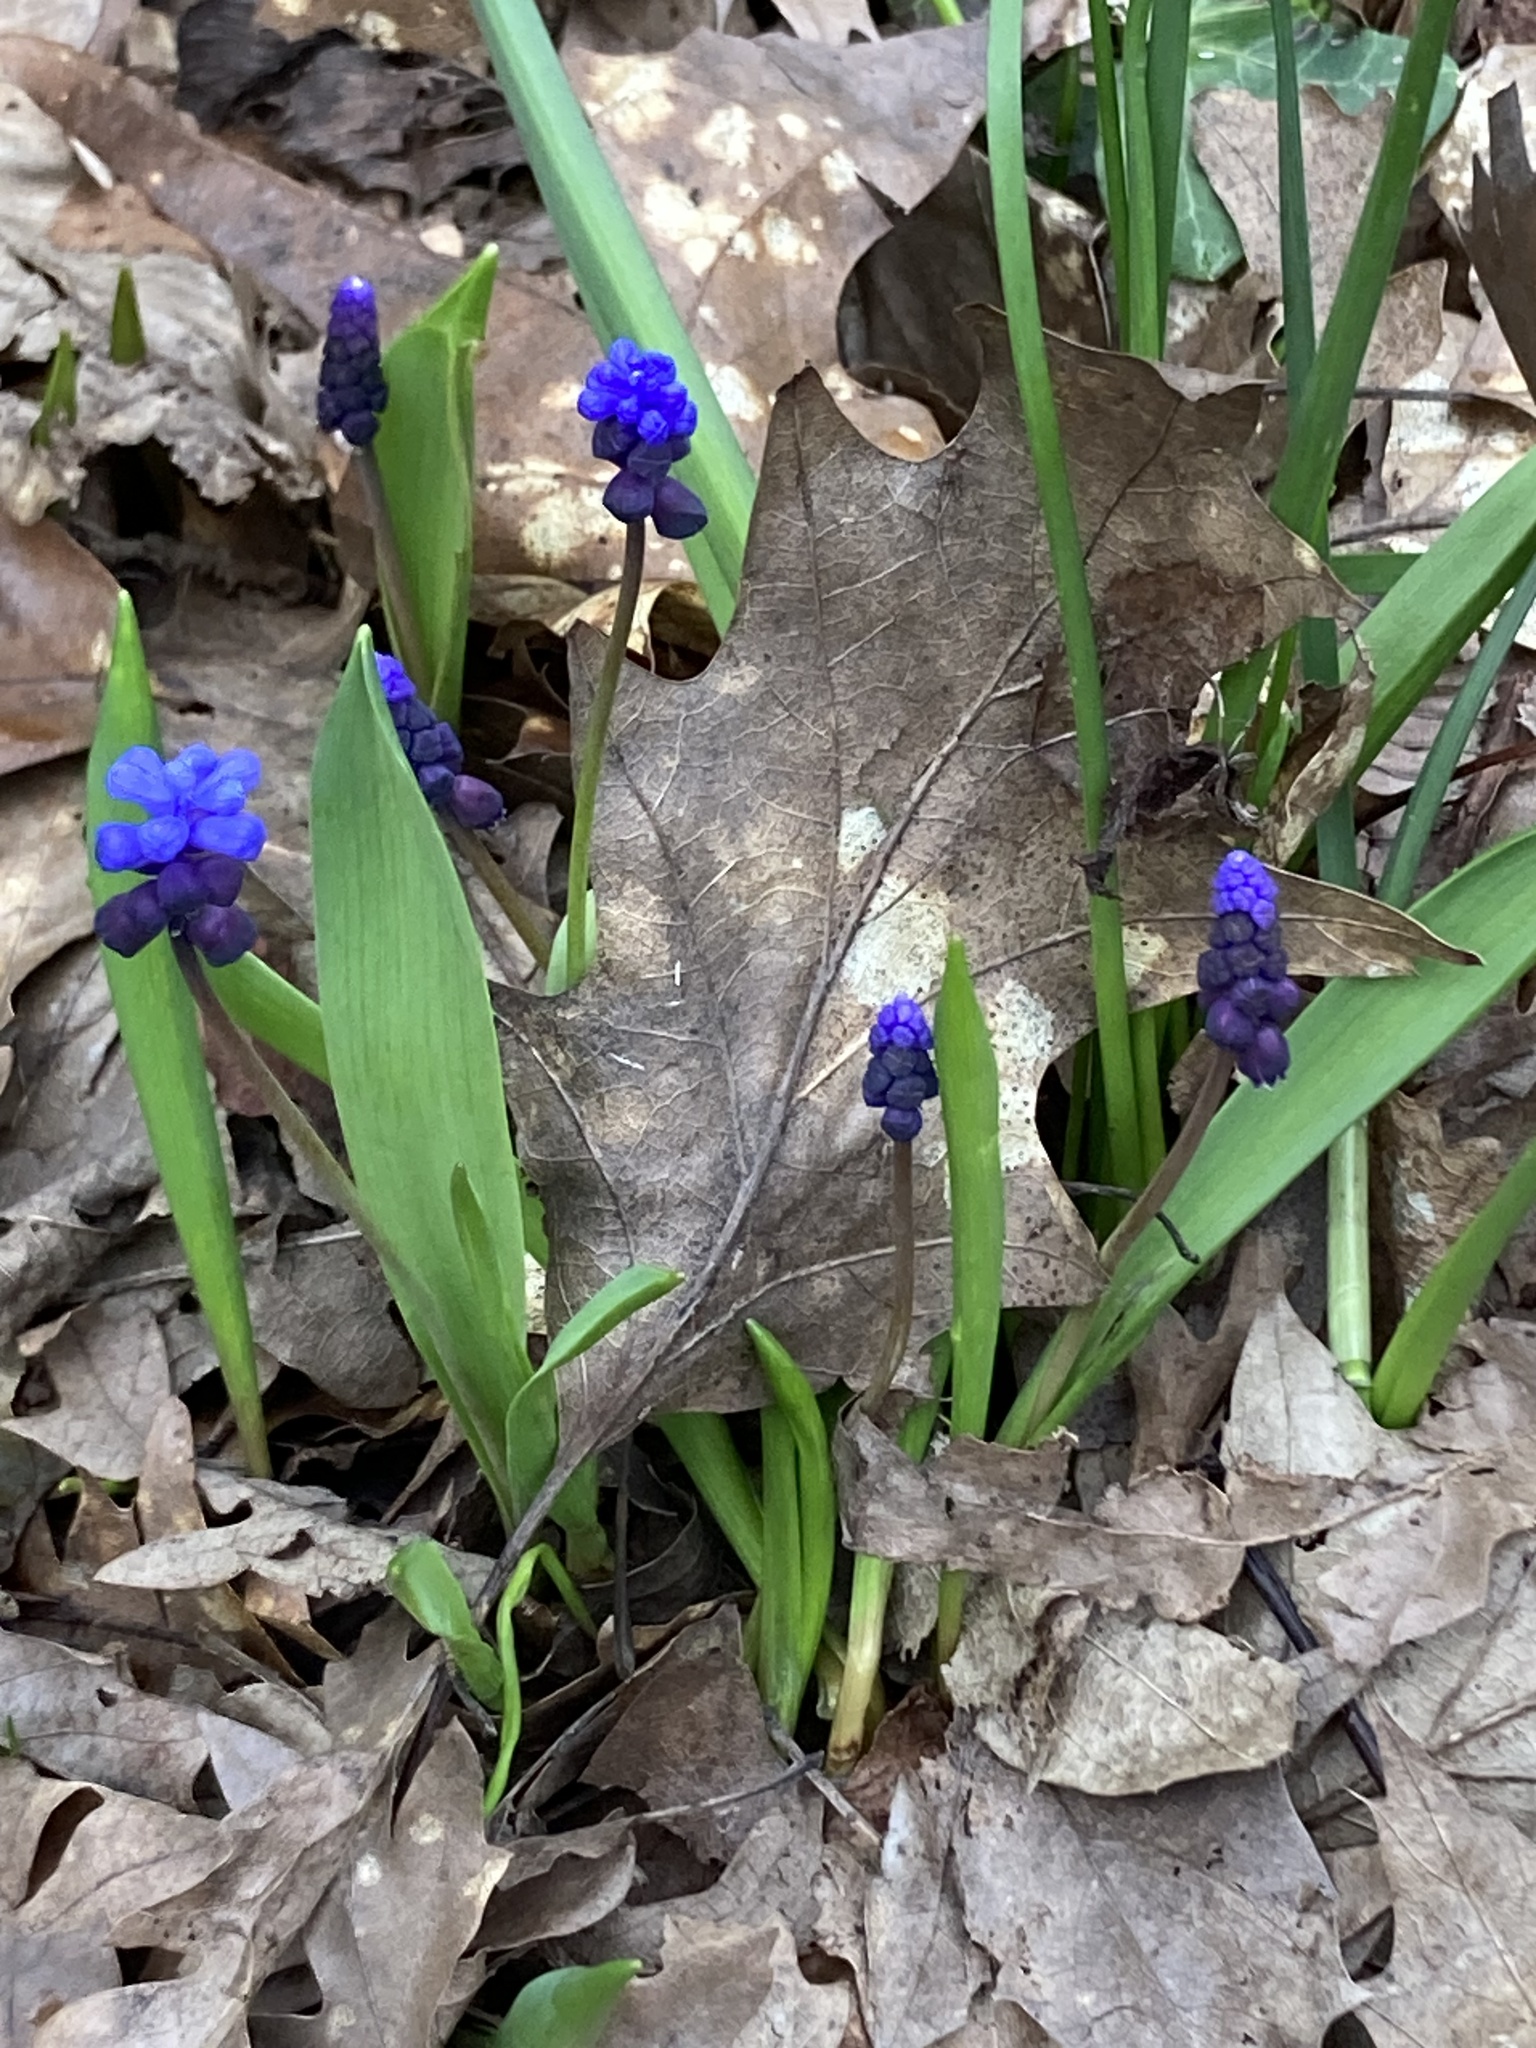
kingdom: Plantae
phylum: Tracheophyta
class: Liliopsida
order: Asparagales
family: Asparagaceae
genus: Muscari
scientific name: Muscari latifolium
